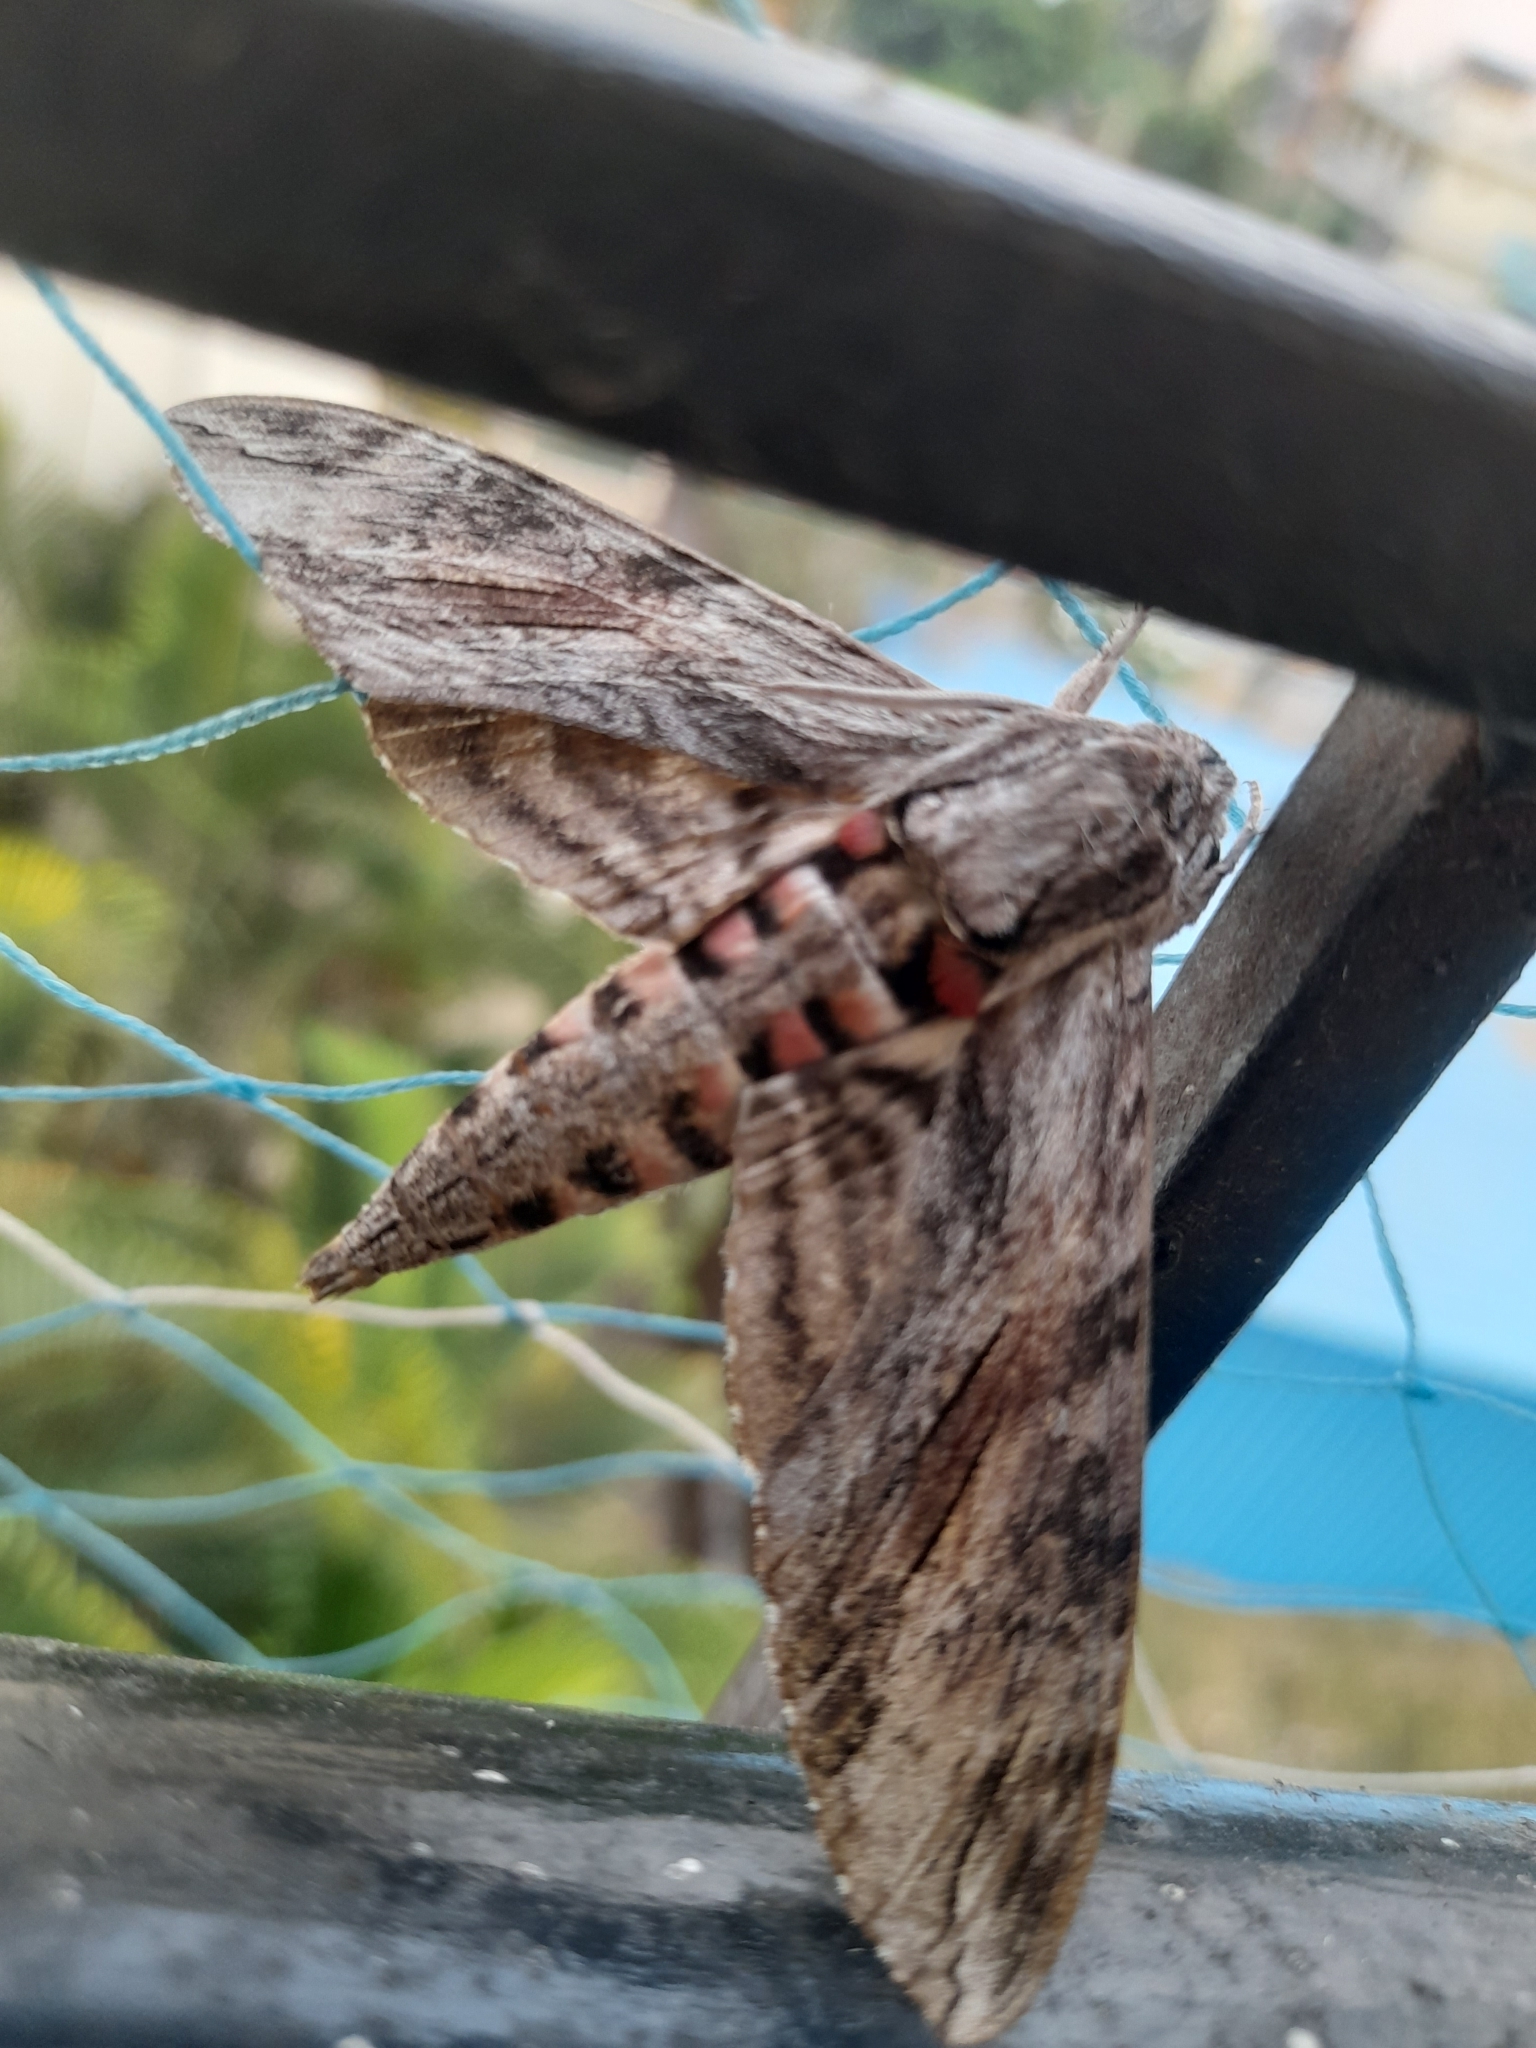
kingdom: Animalia
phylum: Arthropoda
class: Insecta
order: Lepidoptera
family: Sphingidae
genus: Agrius
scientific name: Agrius convolvuli
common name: Convolvulus hawkmoth
